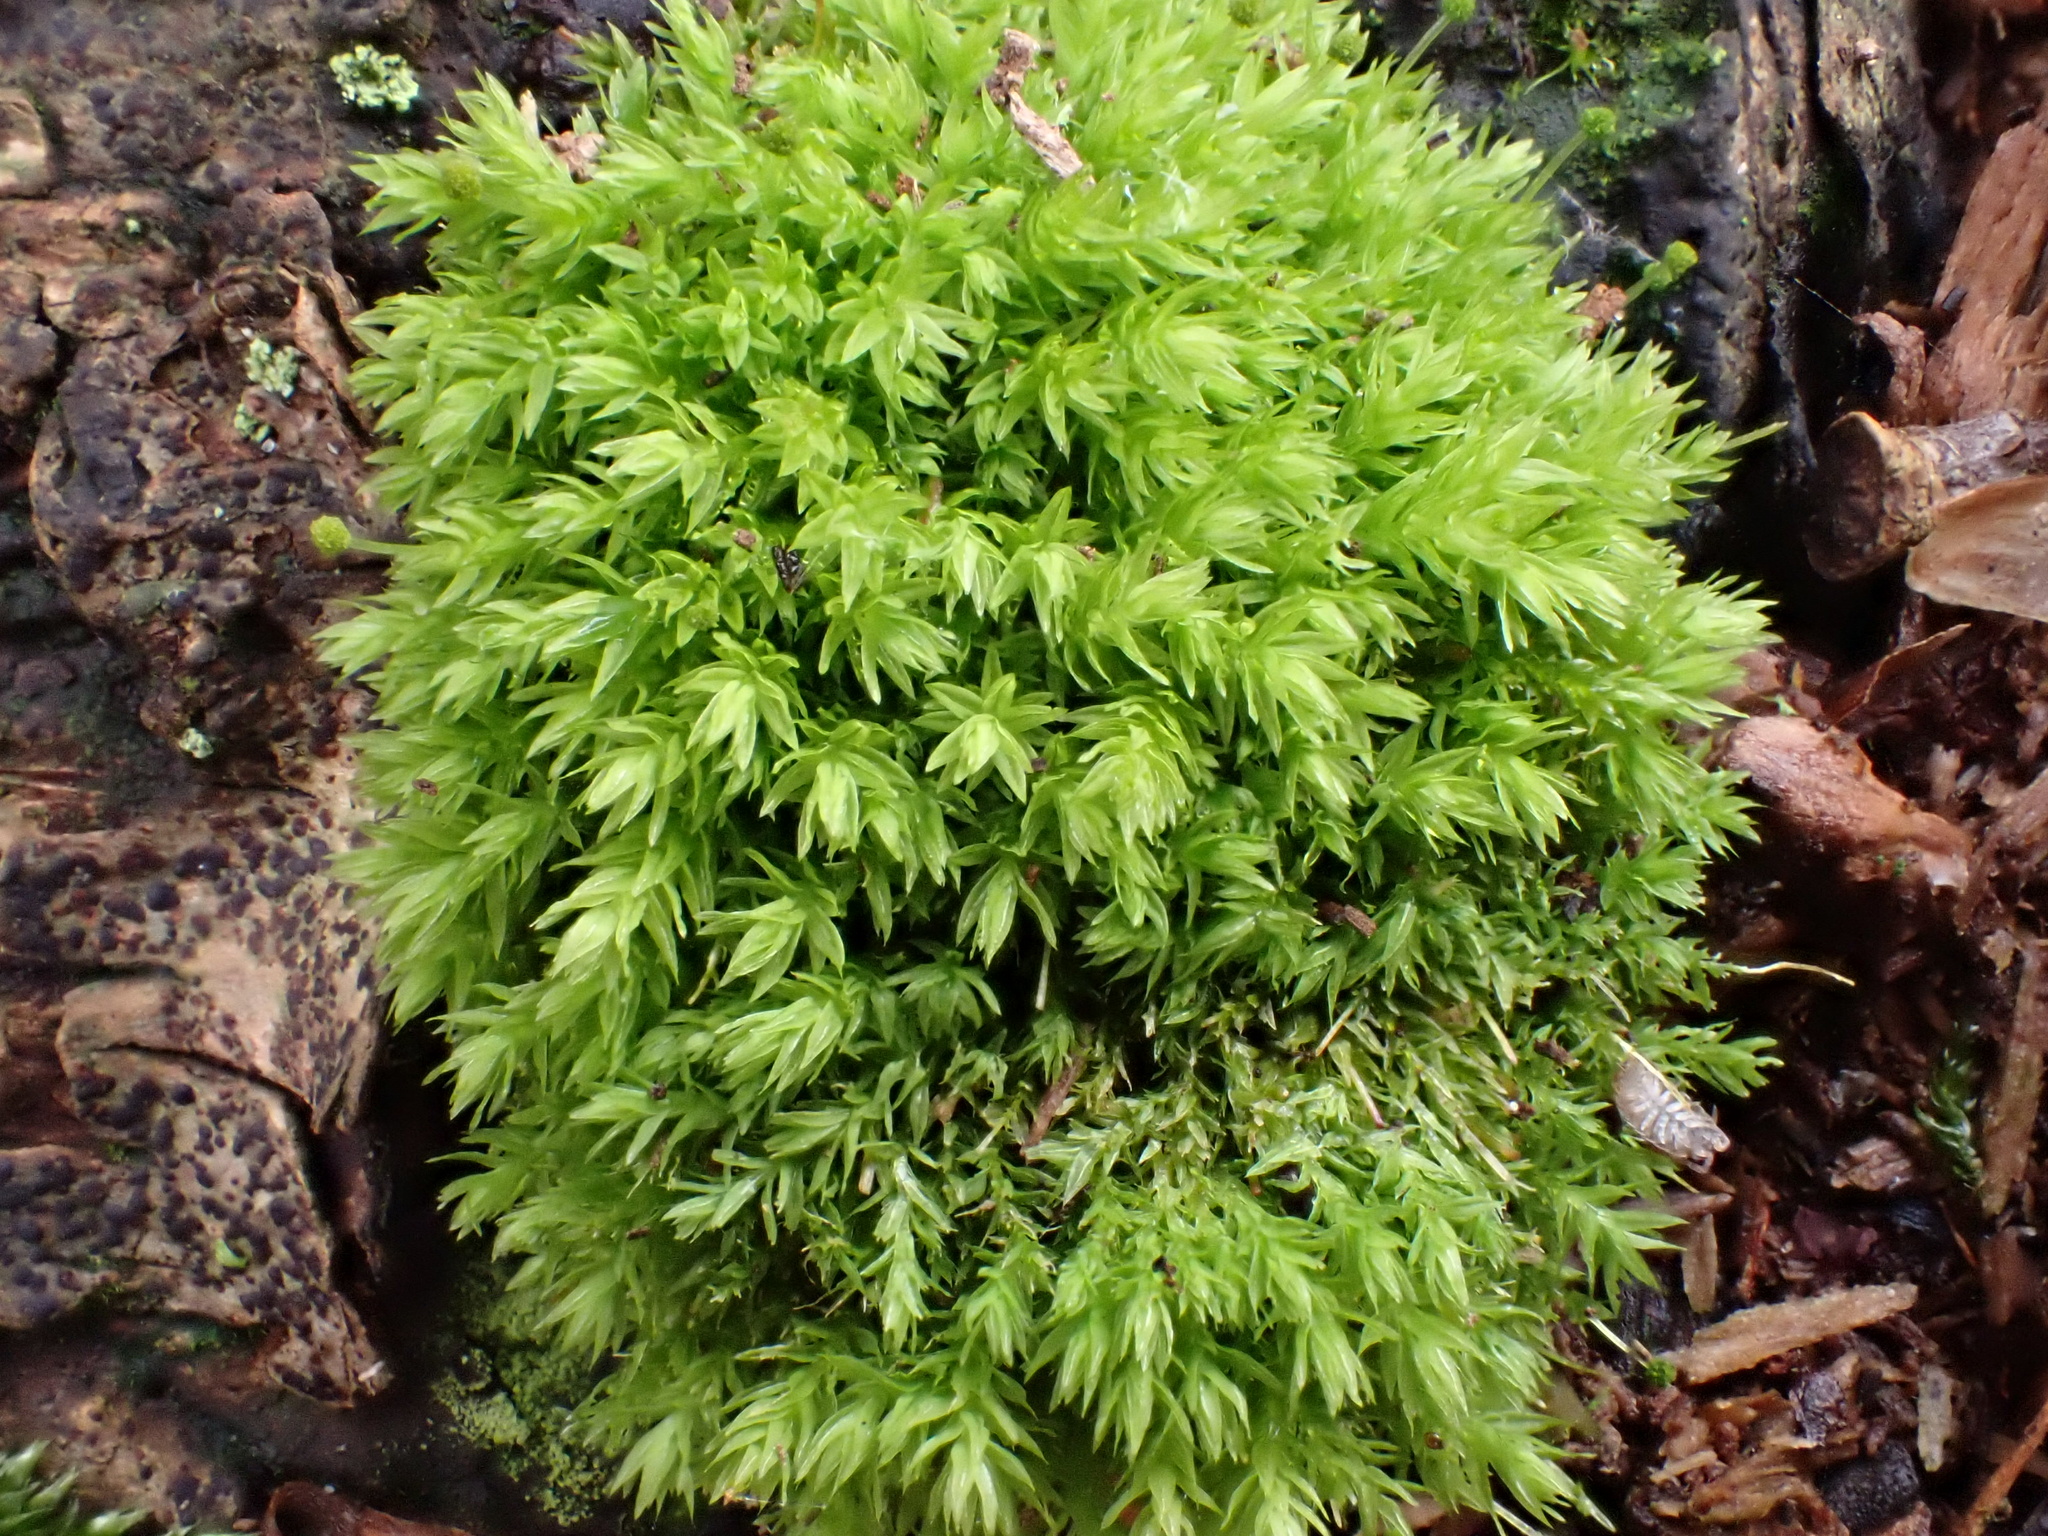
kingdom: Plantae
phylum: Bryophyta
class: Bryopsida
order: Aulacomniales
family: Aulacomniaceae
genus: Aulacomnium
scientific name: Aulacomnium androgynum
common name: Little groove moss
